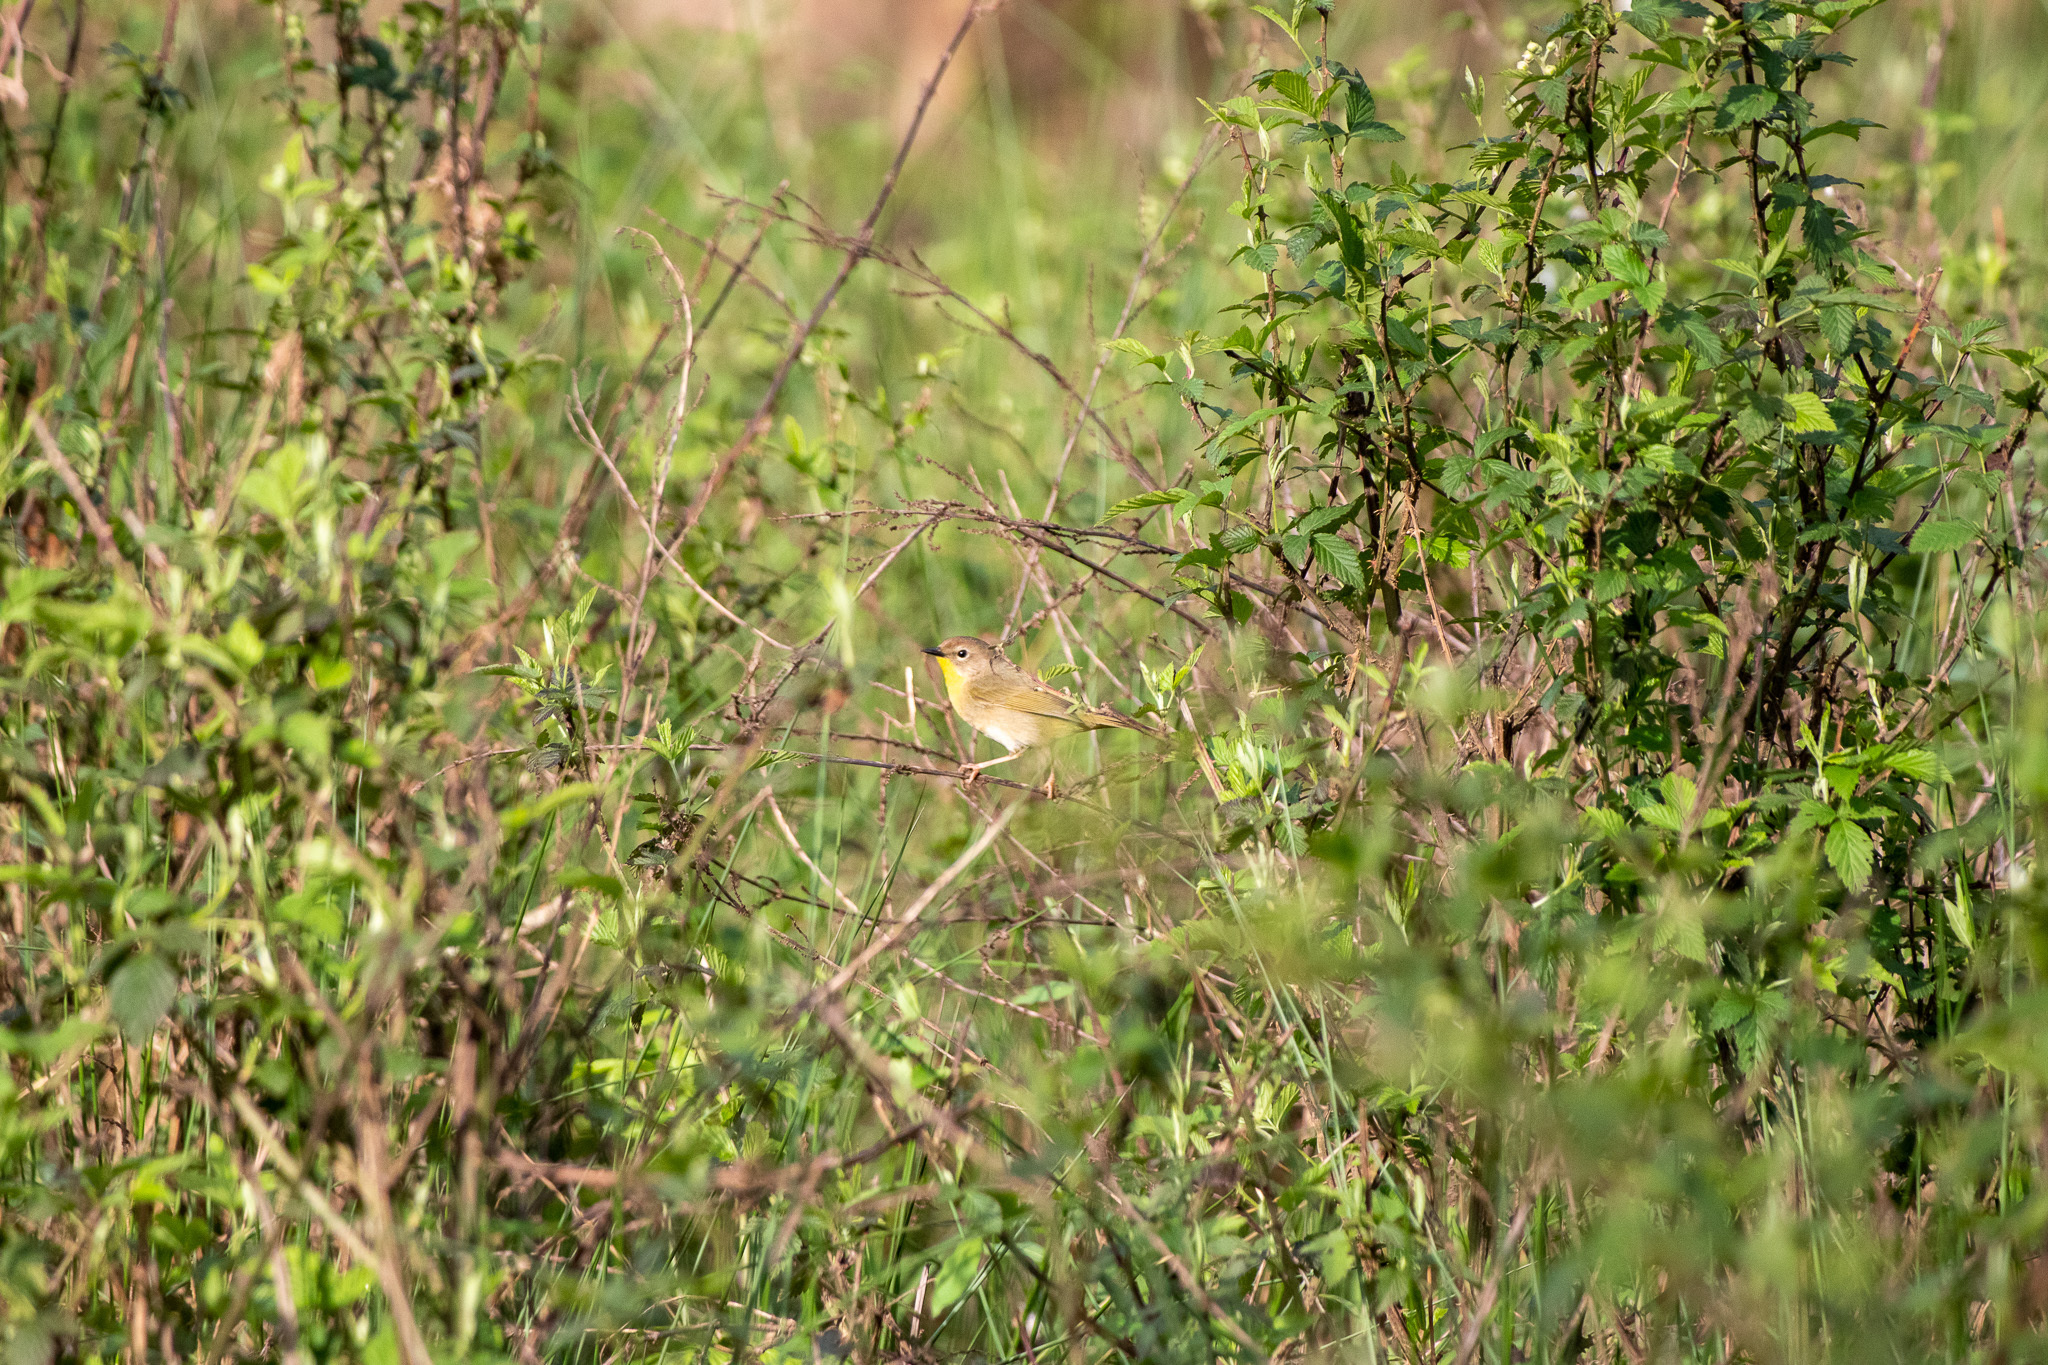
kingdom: Animalia
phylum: Chordata
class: Aves
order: Passeriformes
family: Parulidae
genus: Geothlypis
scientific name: Geothlypis trichas
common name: Common yellowthroat
